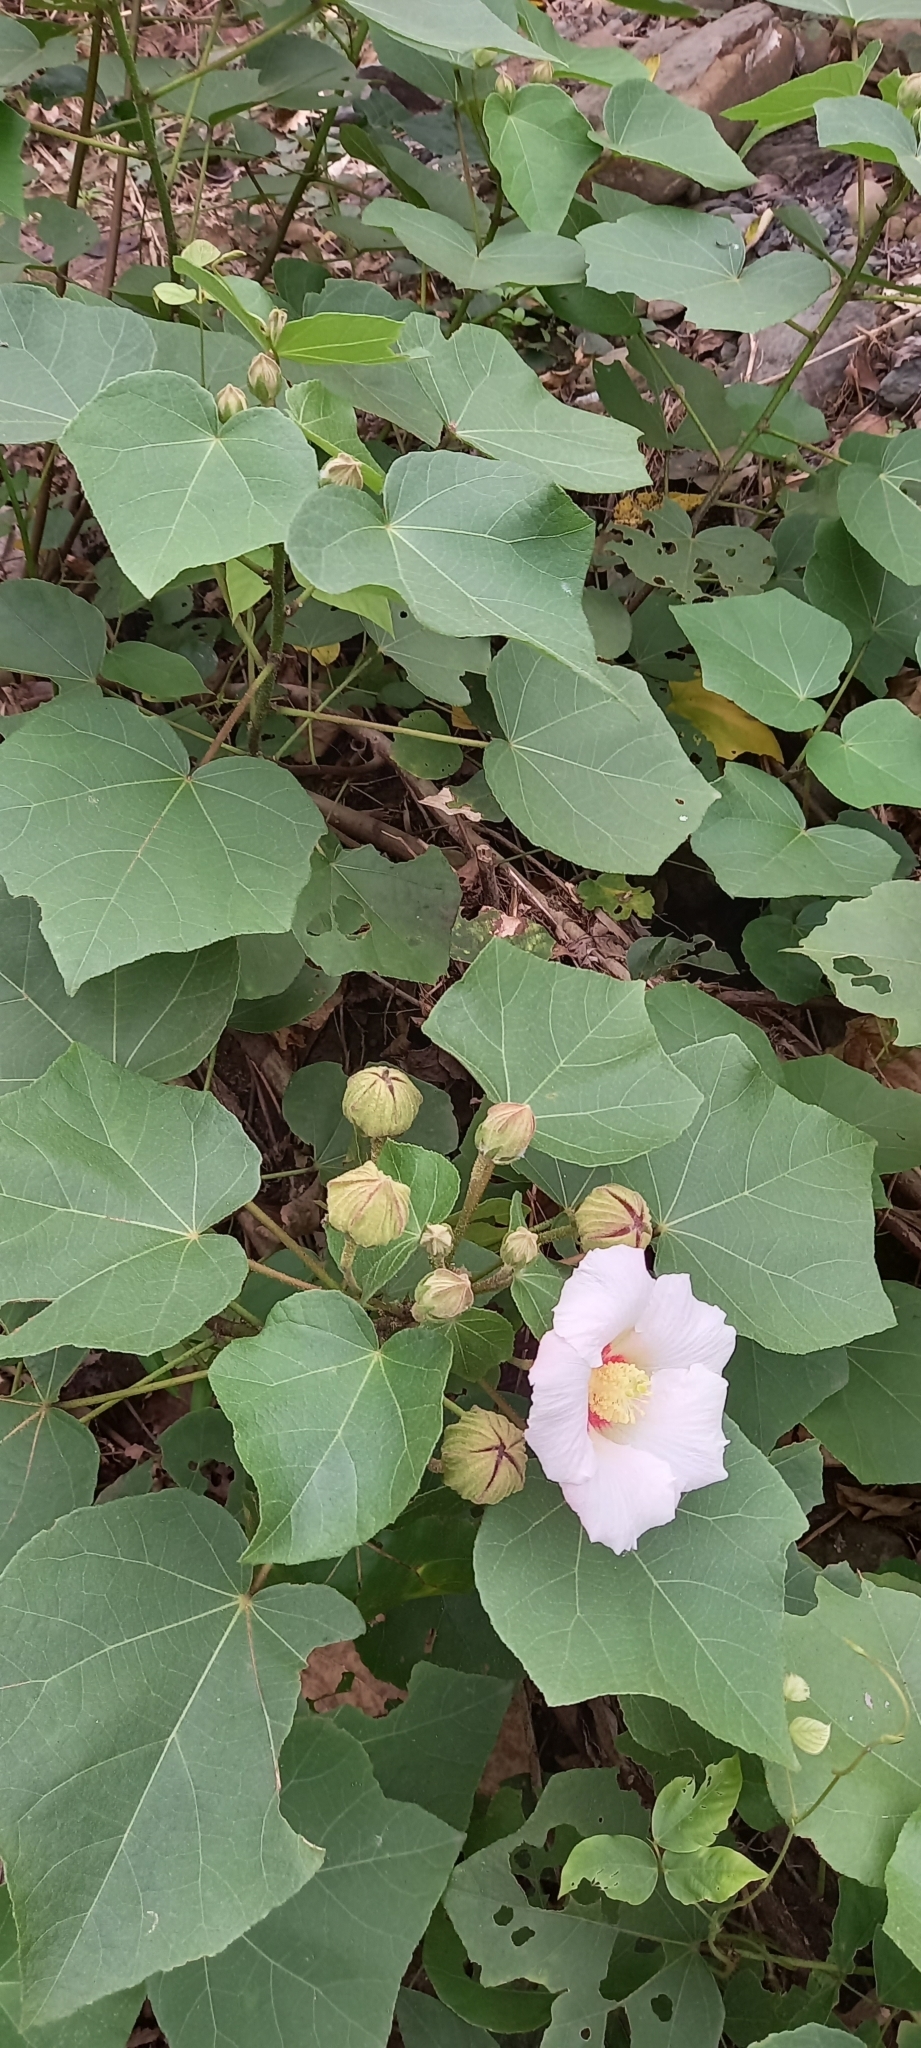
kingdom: Plantae
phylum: Tracheophyta
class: Magnoliopsida
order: Malvales
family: Malvaceae
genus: Hibiscus
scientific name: Hibiscus taiwanensis
